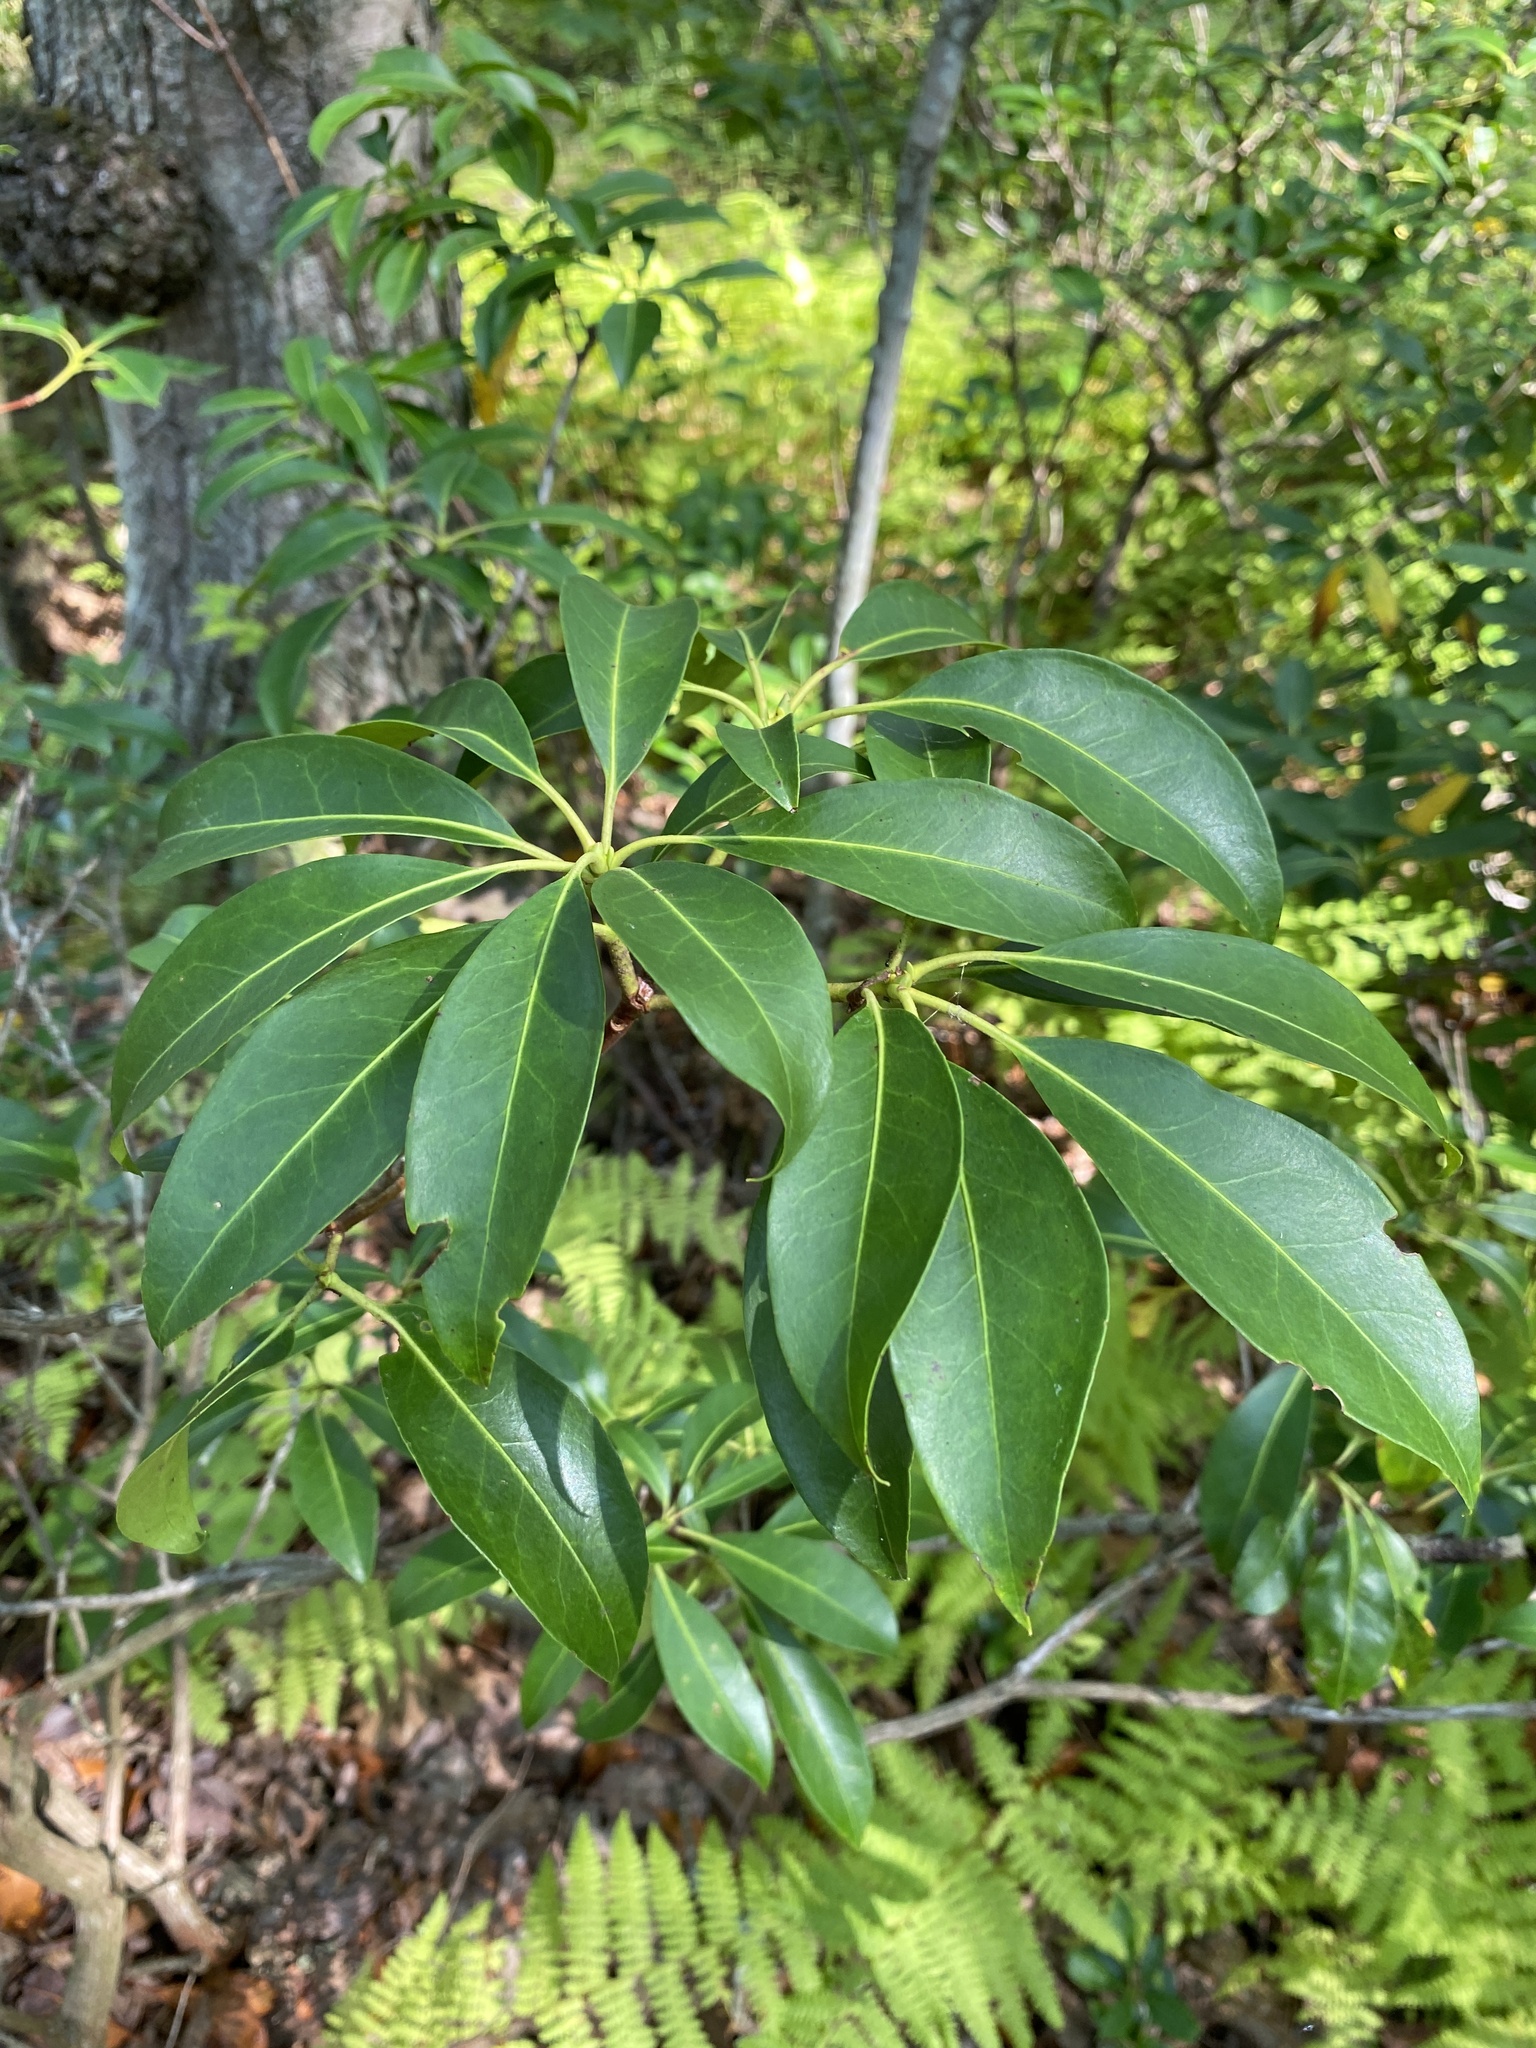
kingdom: Plantae
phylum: Tracheophyta
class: Magnoliopsida
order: Ericales
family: Ericaceae
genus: Kalmia
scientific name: Kalmia latifolia
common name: Mountain-laurel
